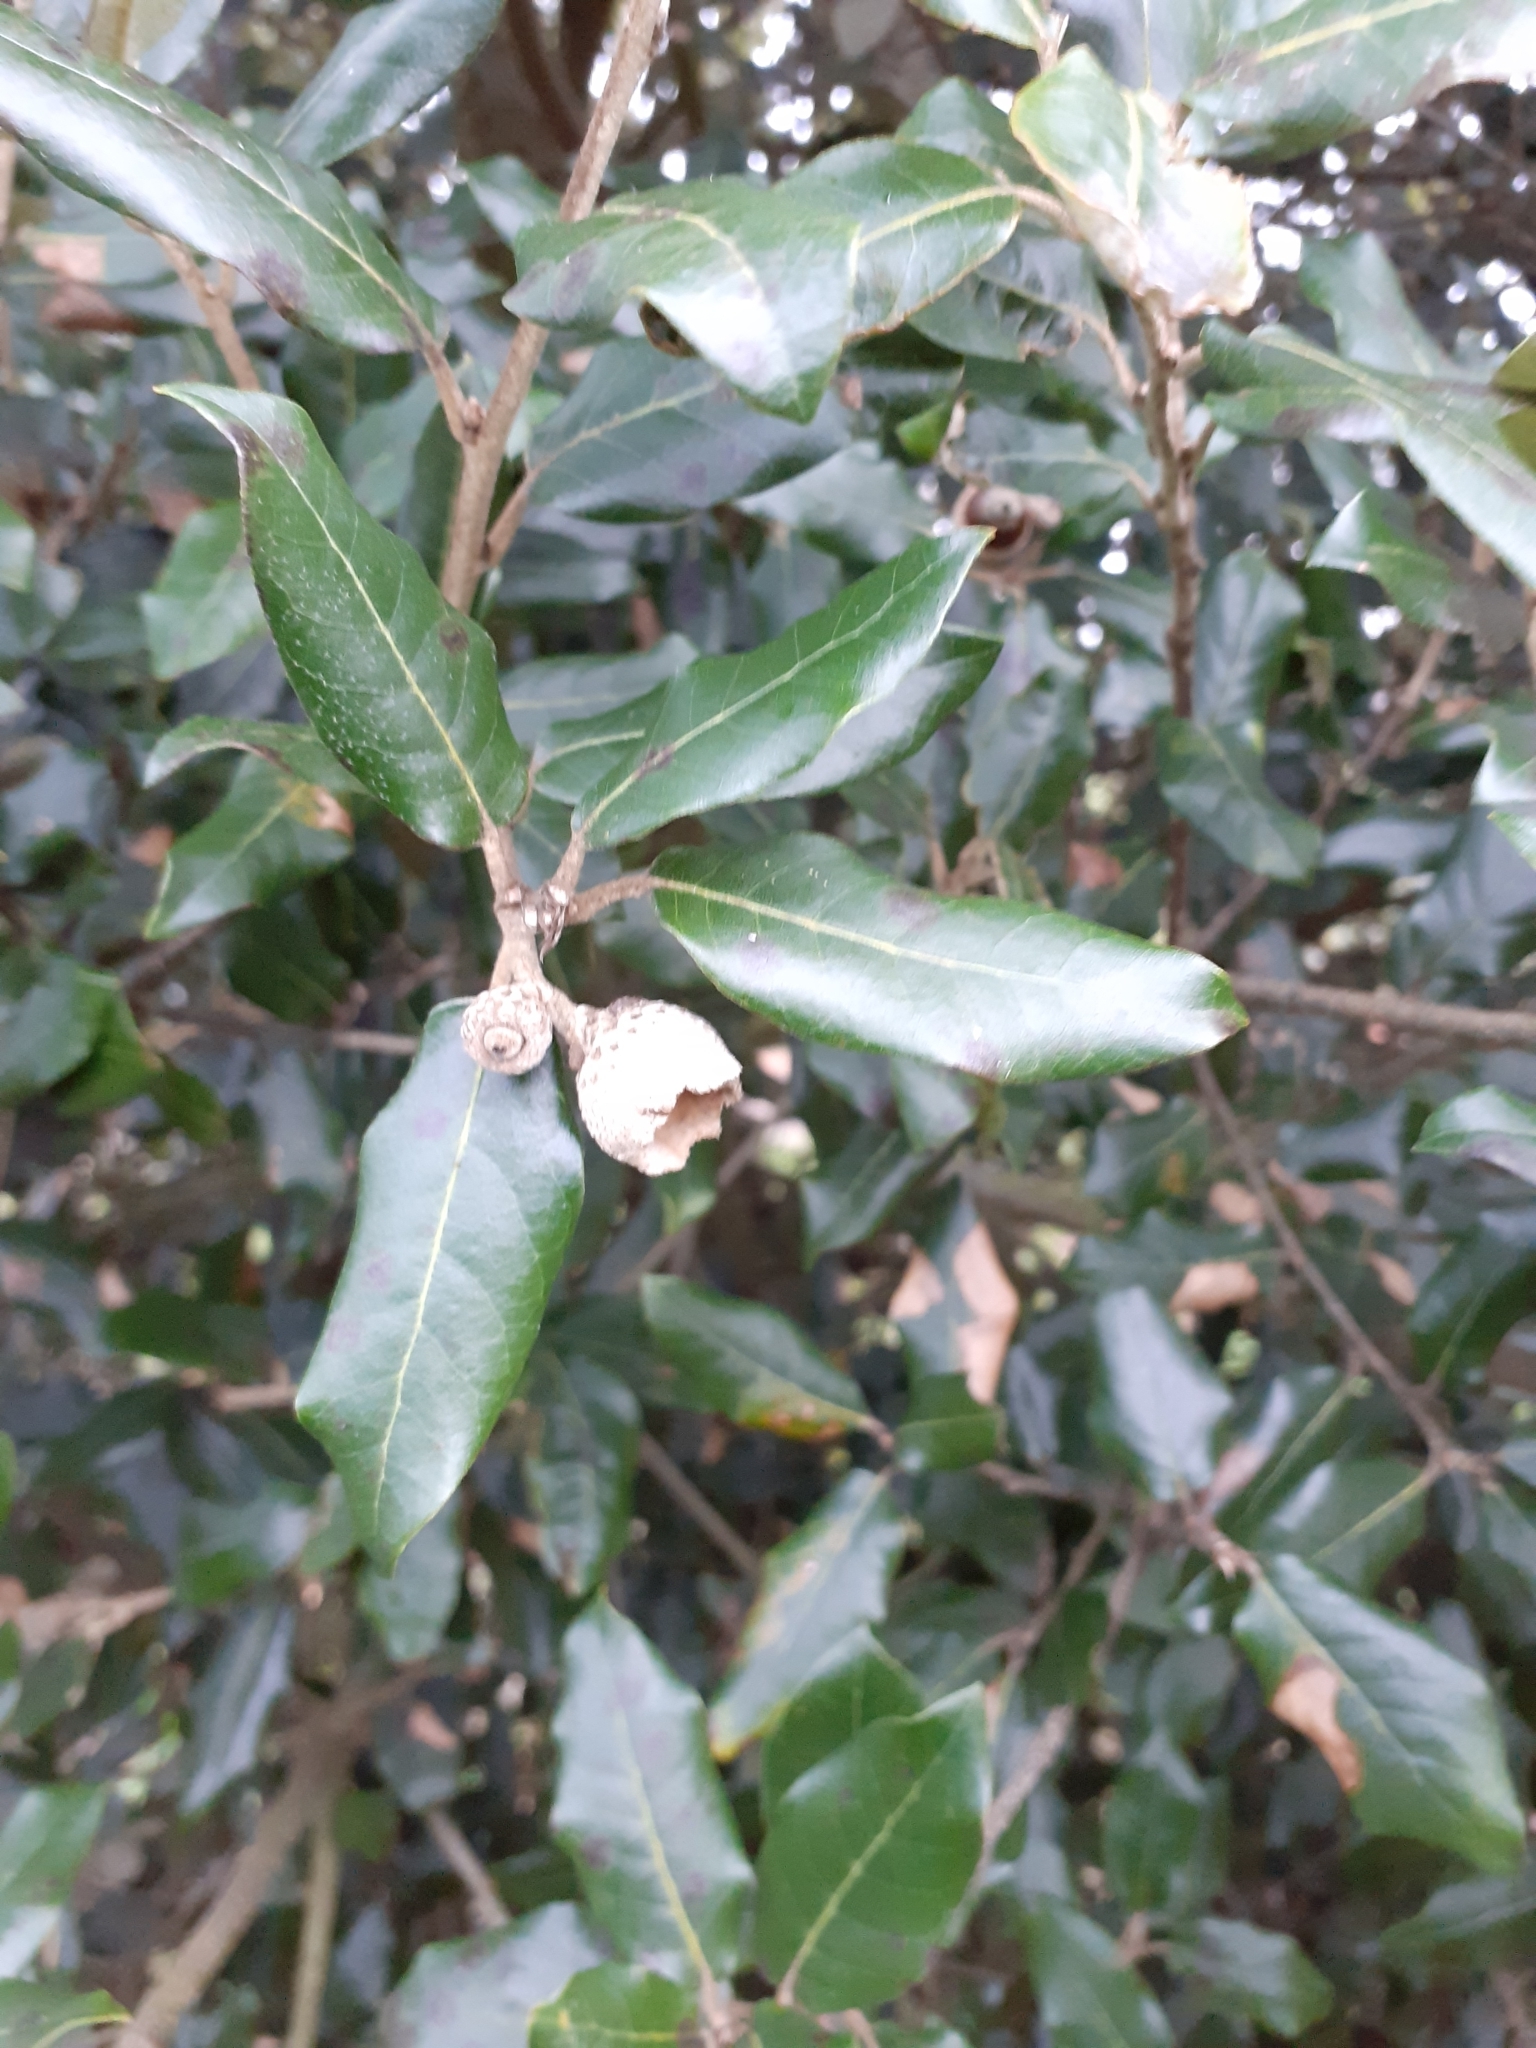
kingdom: Plantae
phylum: Tracheophyta
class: Magnoliopsida
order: Fagales
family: Fagaceae
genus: Quercus
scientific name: Quercus ilex
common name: Evergreen oak
